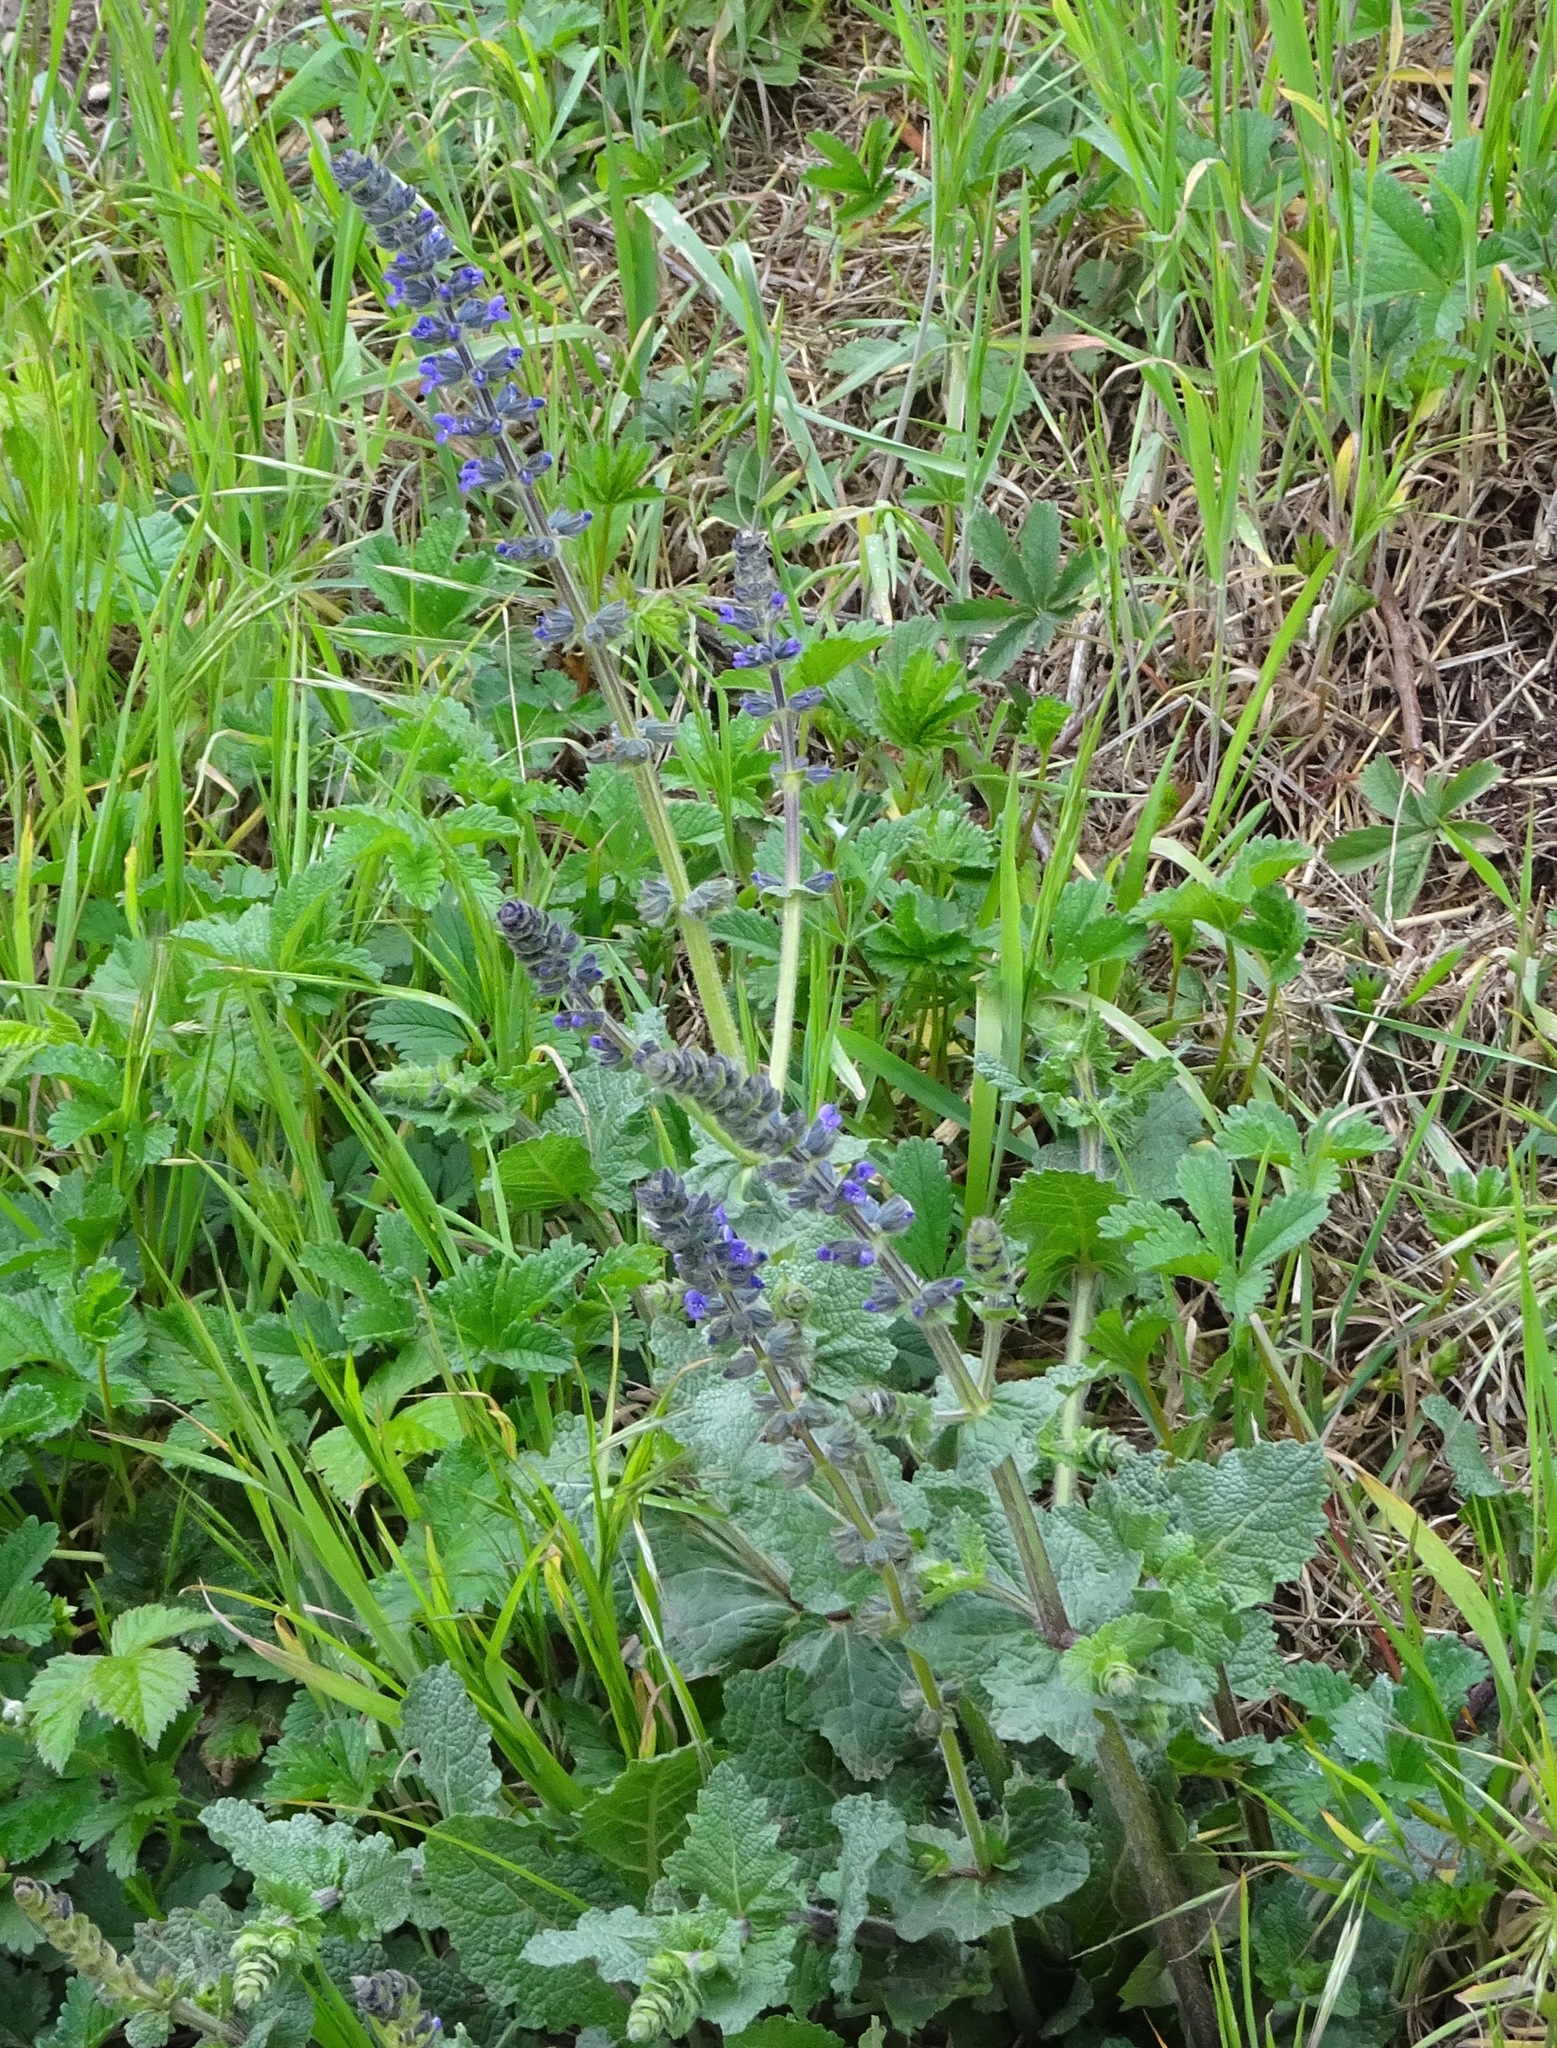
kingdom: Plantae
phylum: Tracheophyta
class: Magnoliopsida
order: Lamiales
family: Lamiaceae
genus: Salvia
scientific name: Salvia verbenaca
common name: Wild clary
